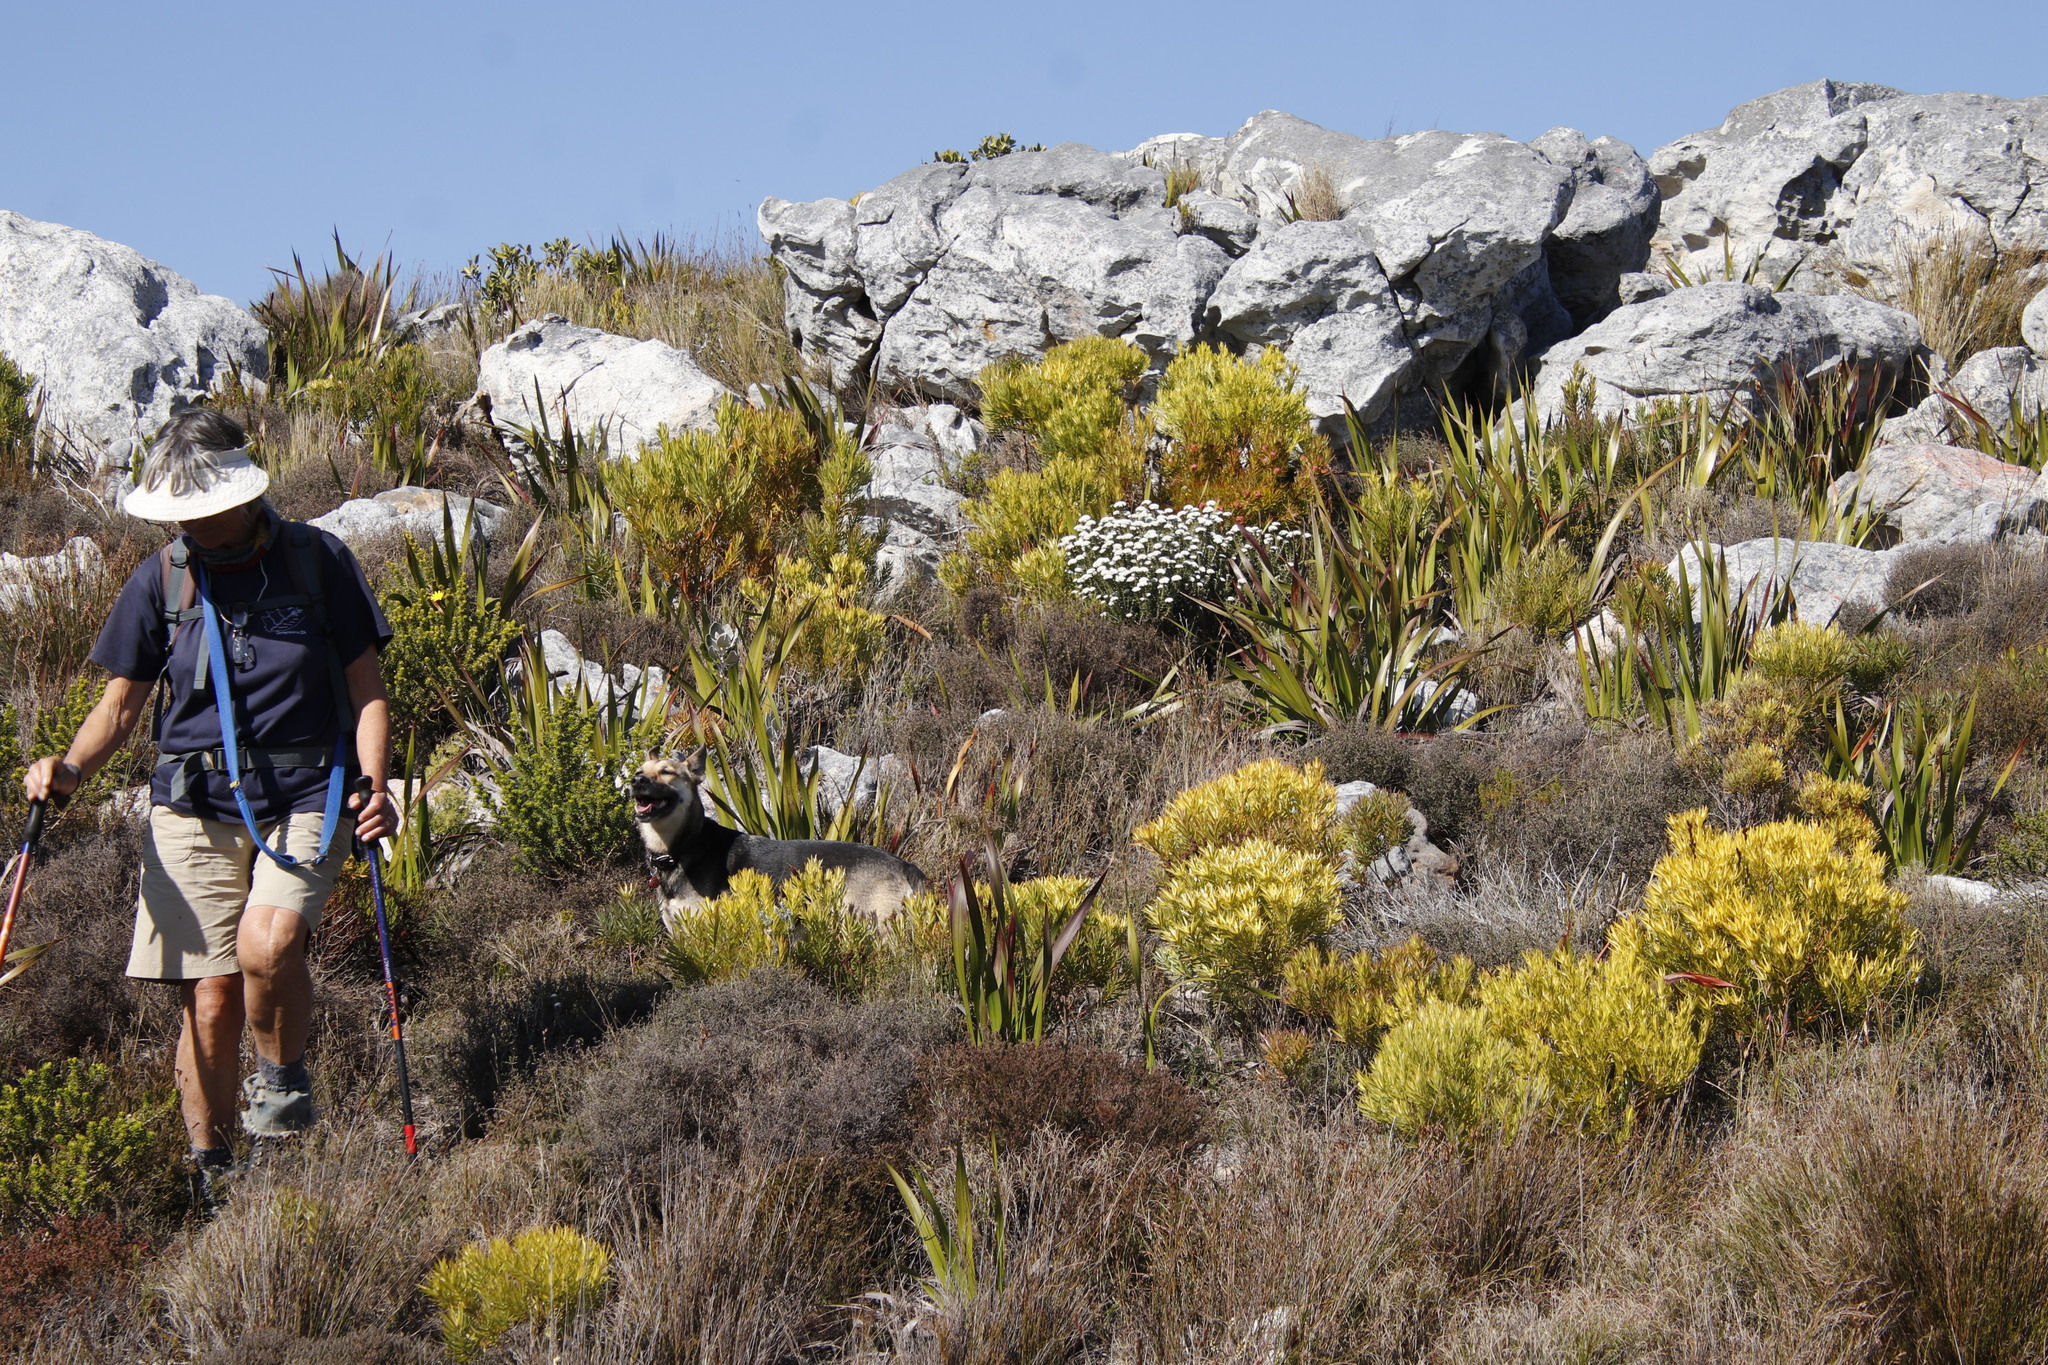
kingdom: Plantae
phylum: Tracheophyta
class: Magnoliopsida
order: Proteales
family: Proteaceae
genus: Leucadendron
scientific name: Leucadendron xanthoconus
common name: Sickle-leaf conebush
